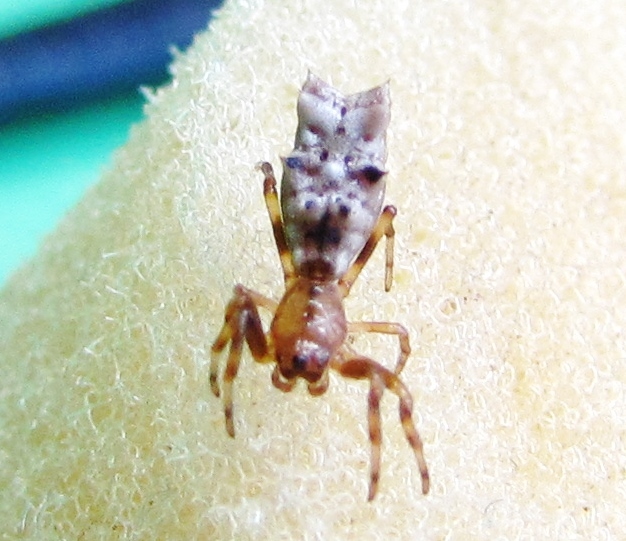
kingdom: Animalia
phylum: Arthropoda
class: Arachnida
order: Araneae
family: Araneidae
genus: Micrathena
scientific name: Micrathena gracilis
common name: Orb weavers
